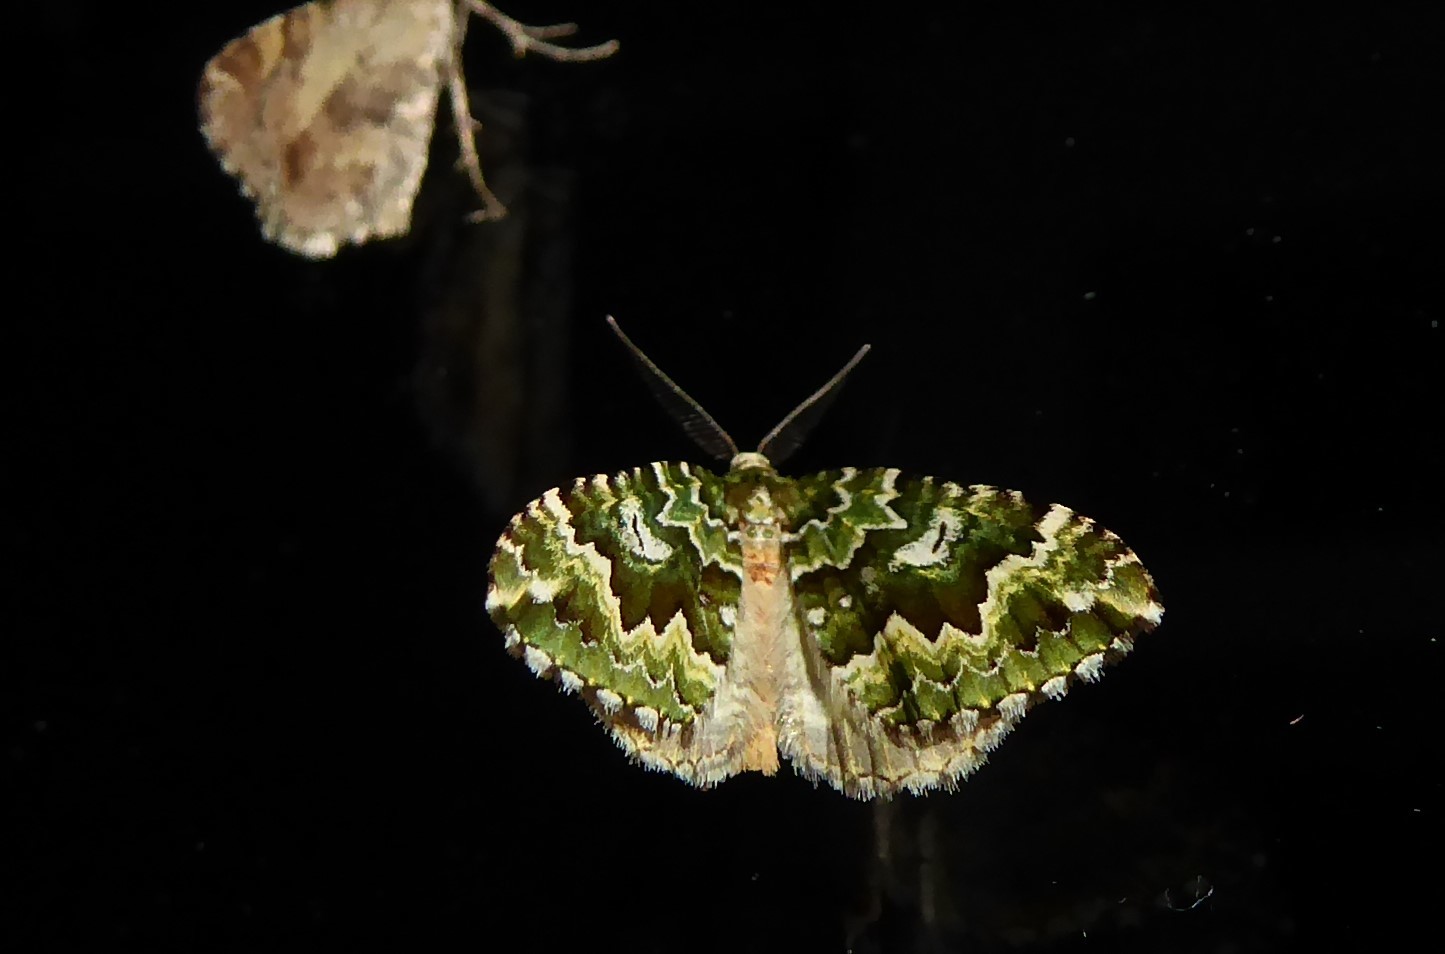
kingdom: Animalia
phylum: Arthropoda
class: Insecta
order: Lepidoptera
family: Geometridae
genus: Asaphodes
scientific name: Asaphodes beata
